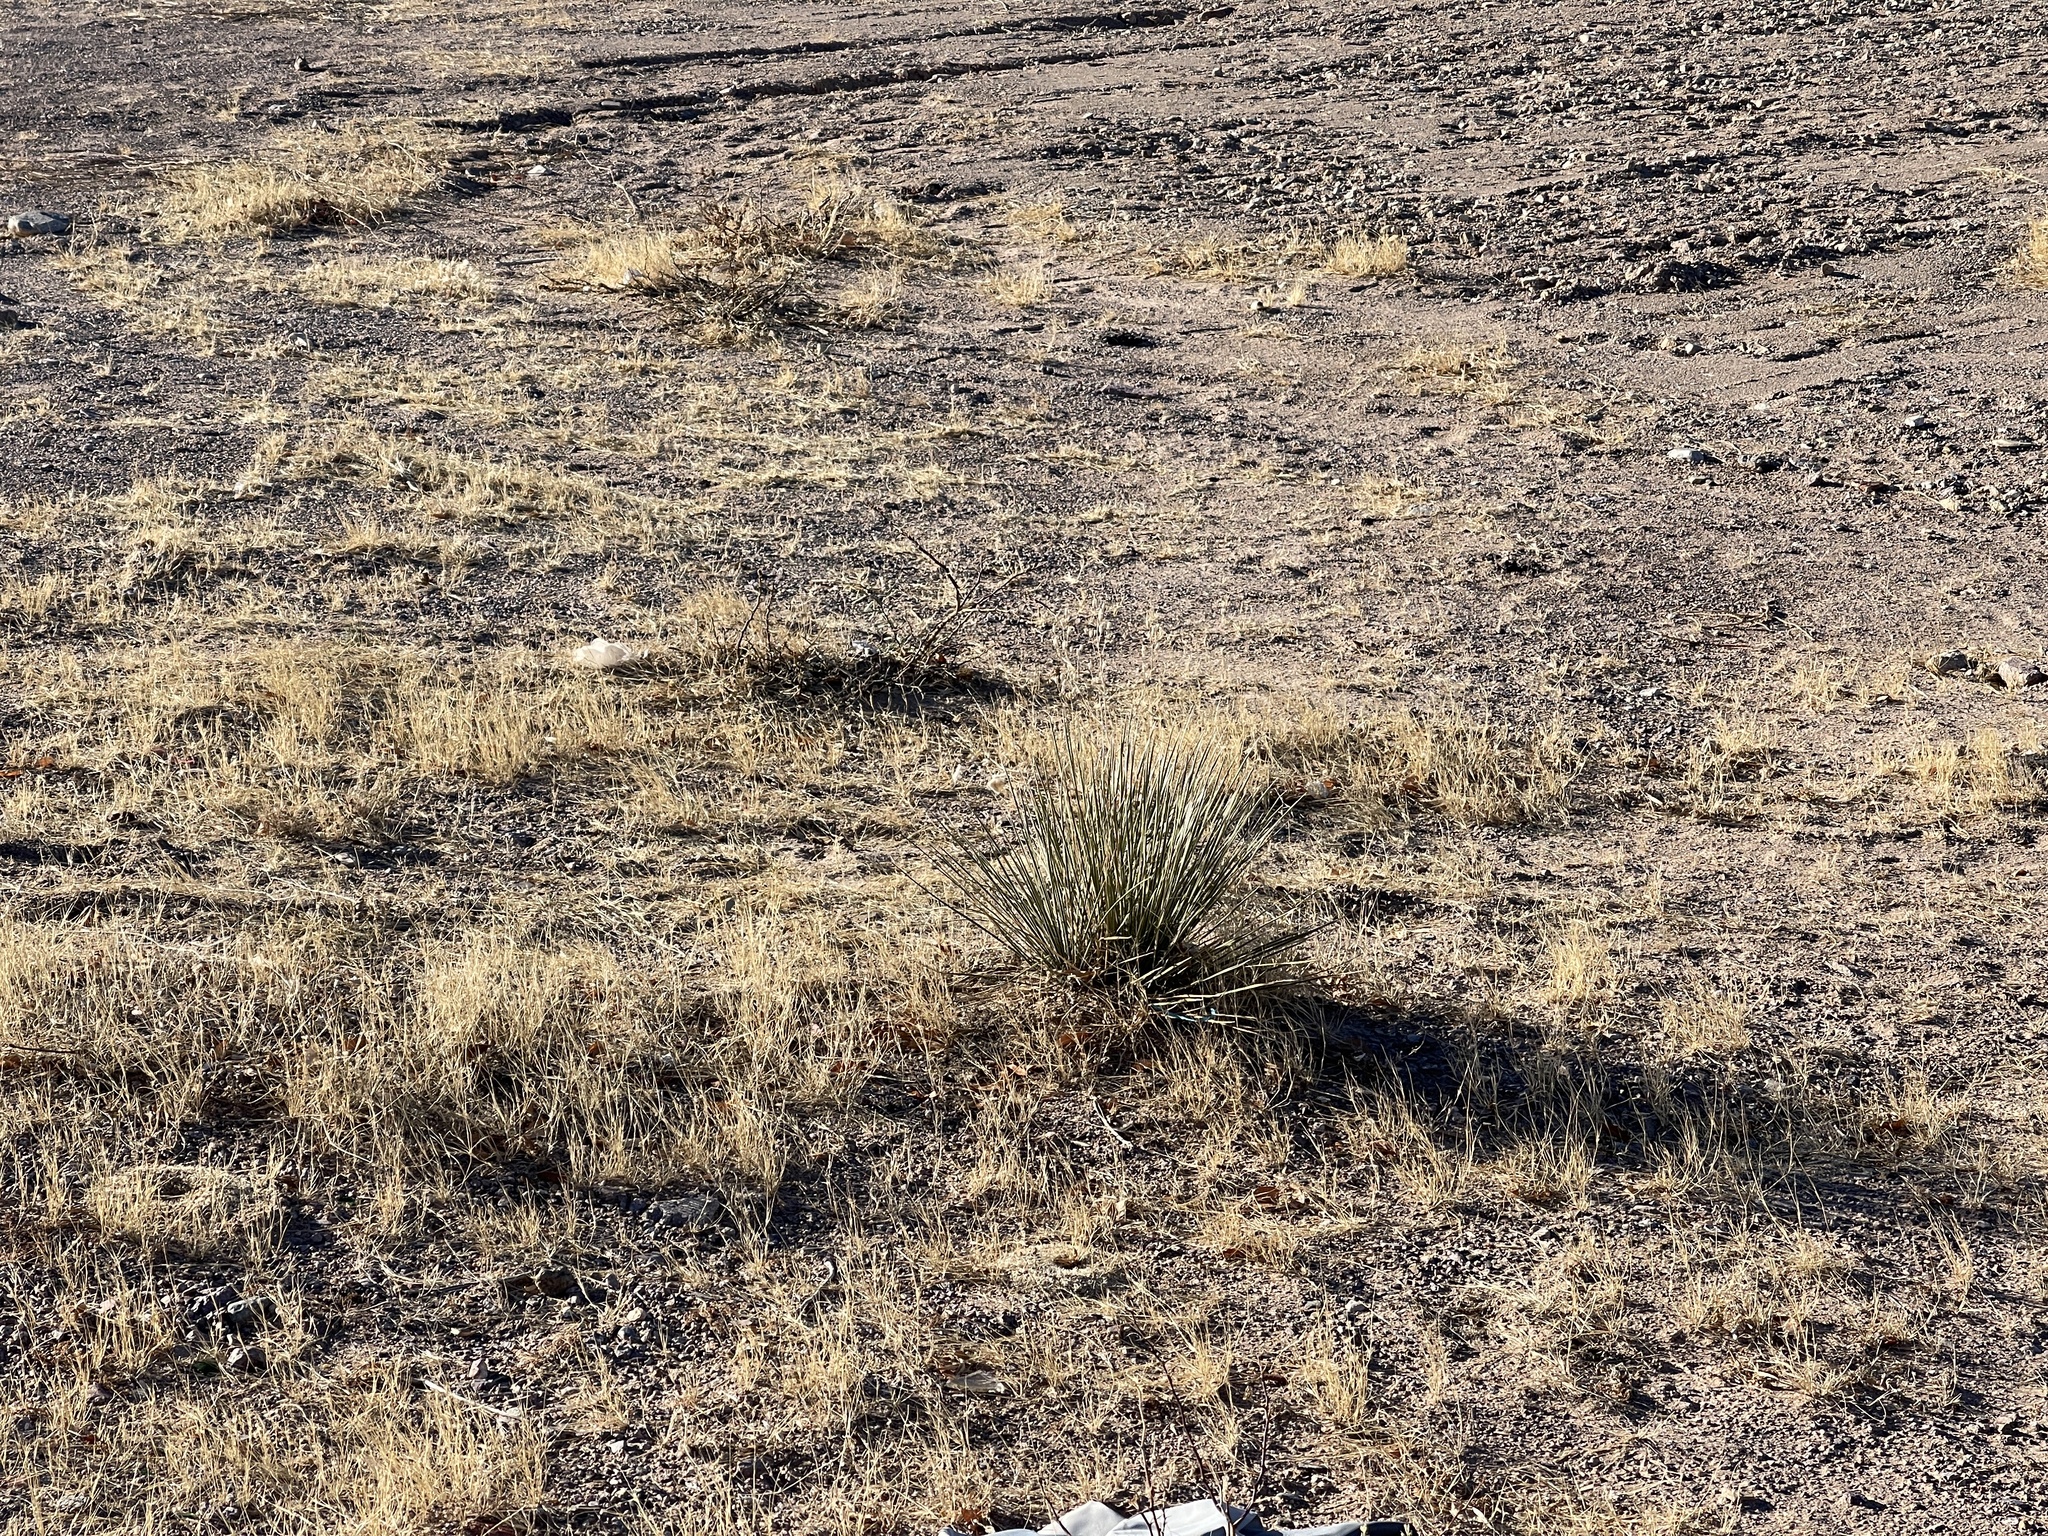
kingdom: Plantae
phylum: Tracheophyta
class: Liliopsida
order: Asparagales
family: Asparagaceae
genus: Yucca
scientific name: Yucca elata
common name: Palmella
